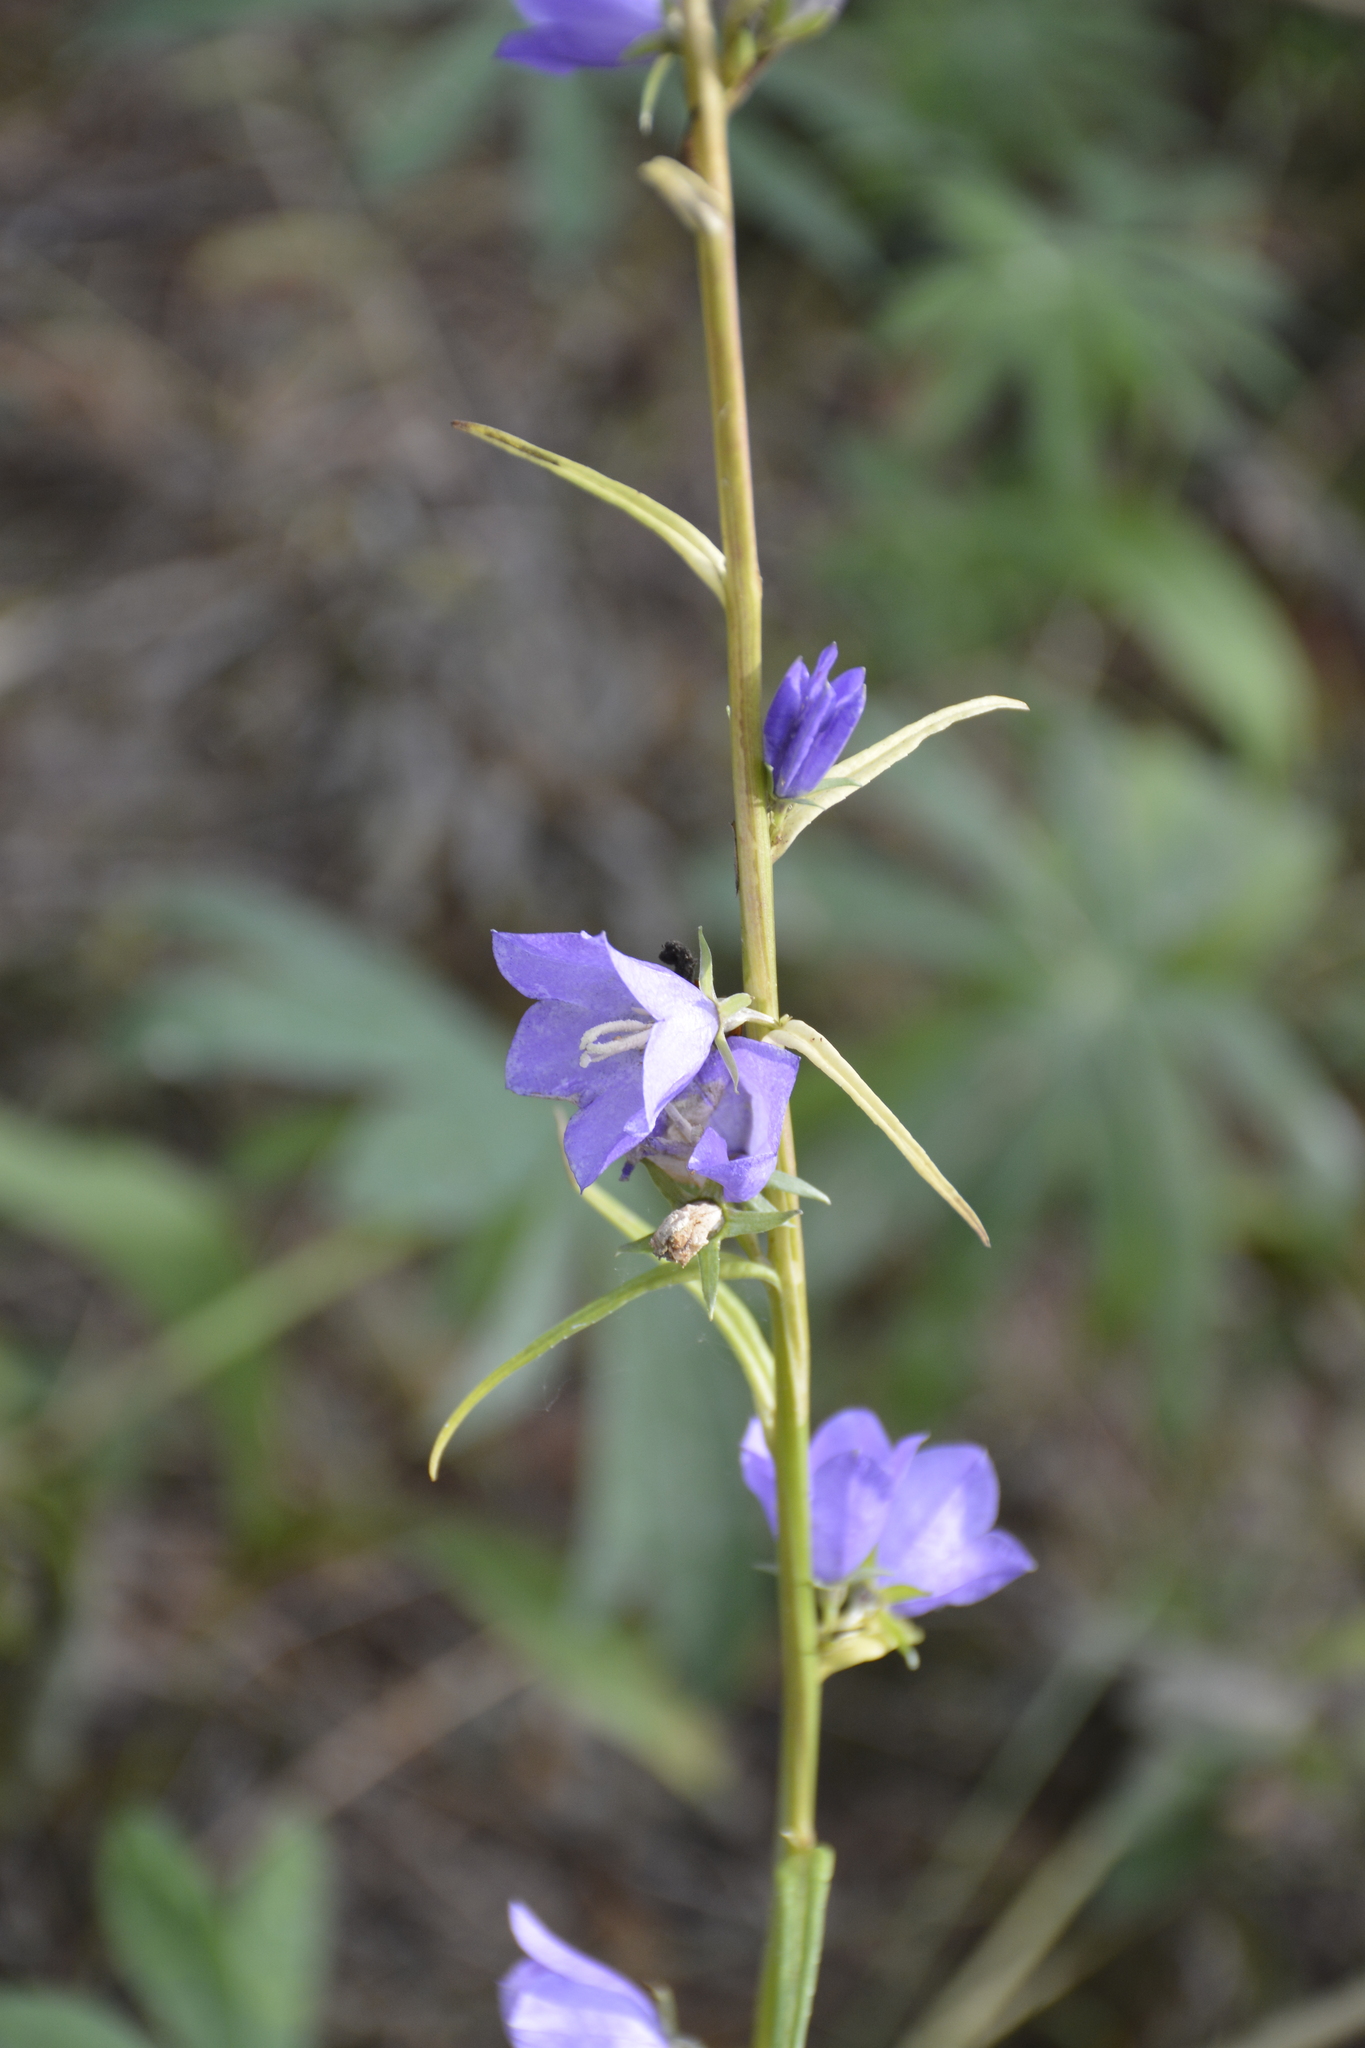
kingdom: Plantae
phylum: Tracheophyta
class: Magnoliopsida
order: Asterales
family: Campanulaceae
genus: Campanula
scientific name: Campanula persicifolia
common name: Peach-leaved bellflower
